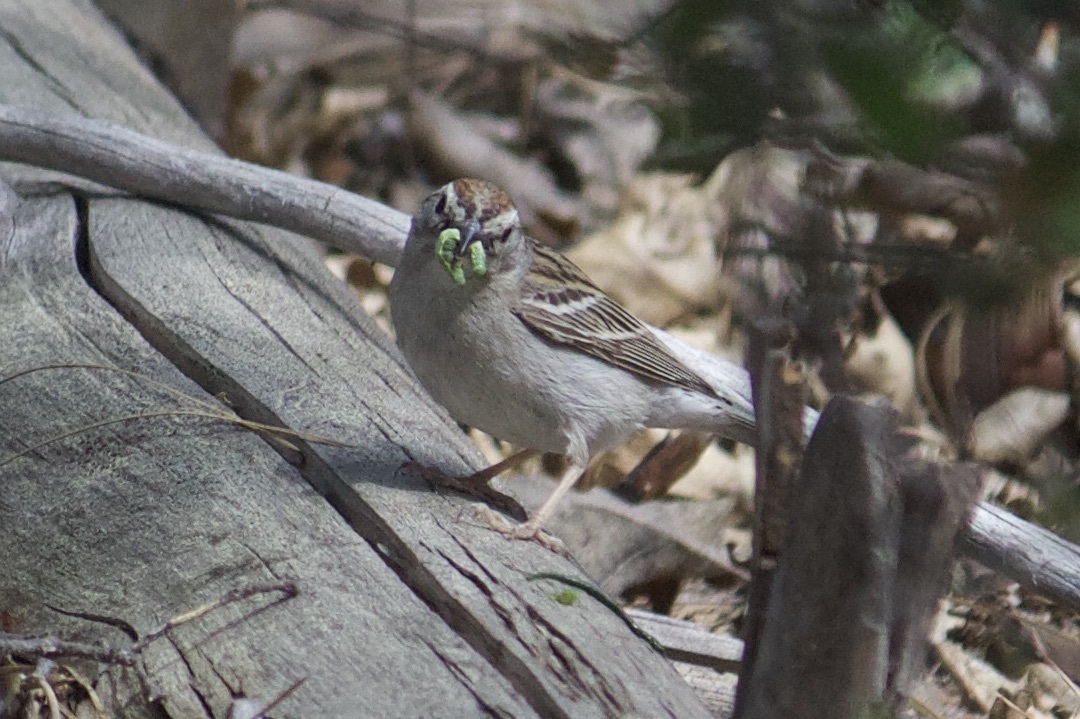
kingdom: Animalia
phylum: Chordata
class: Aves
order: Passeriformes
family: Passerellidae
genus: Spizella
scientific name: Spizella passerina
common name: Chipping sparrow
